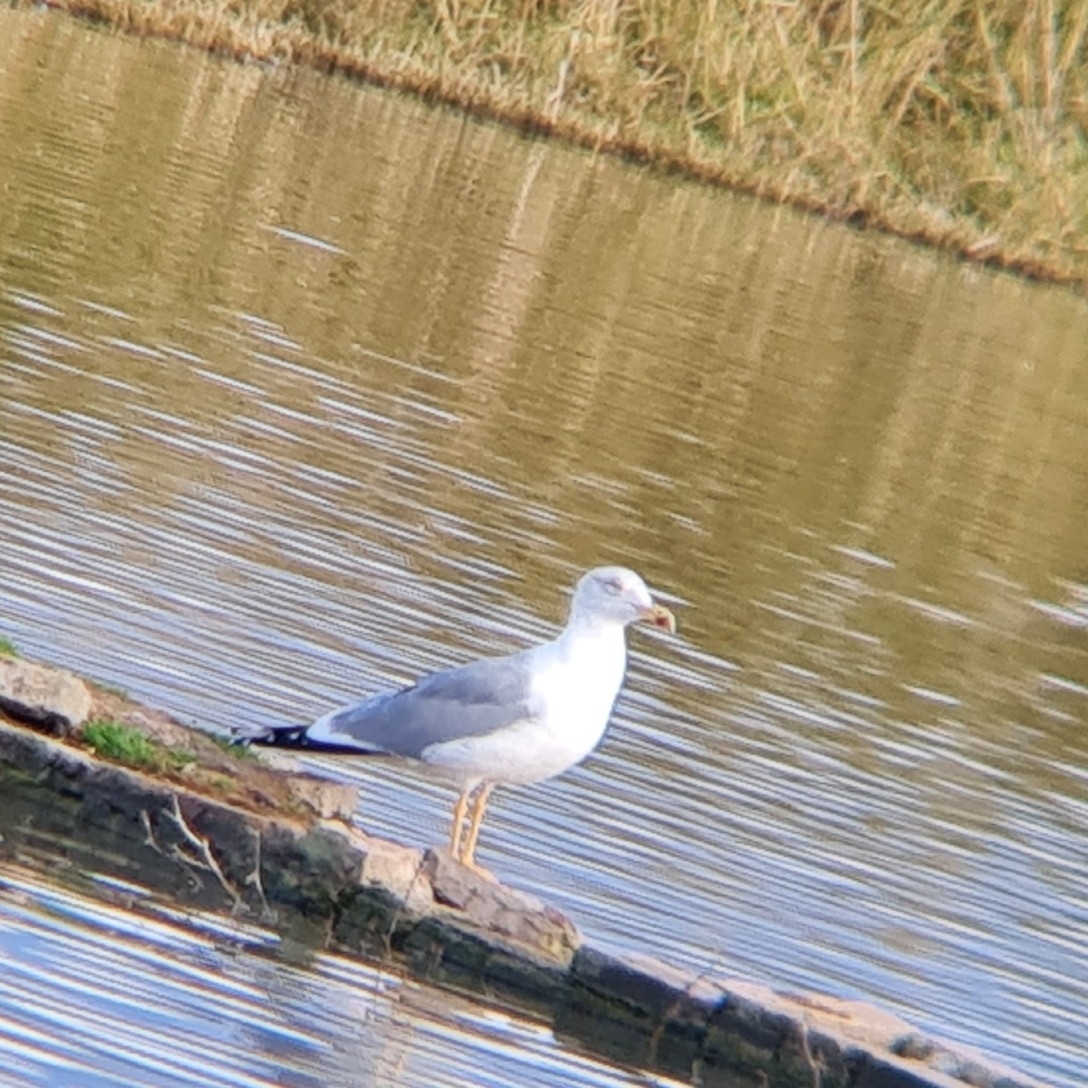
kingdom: Animalia
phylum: Chordata
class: Aves
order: Charadriiformes
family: Laridae
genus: Larus
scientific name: Larus michahellis
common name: Yellow-legged gull
